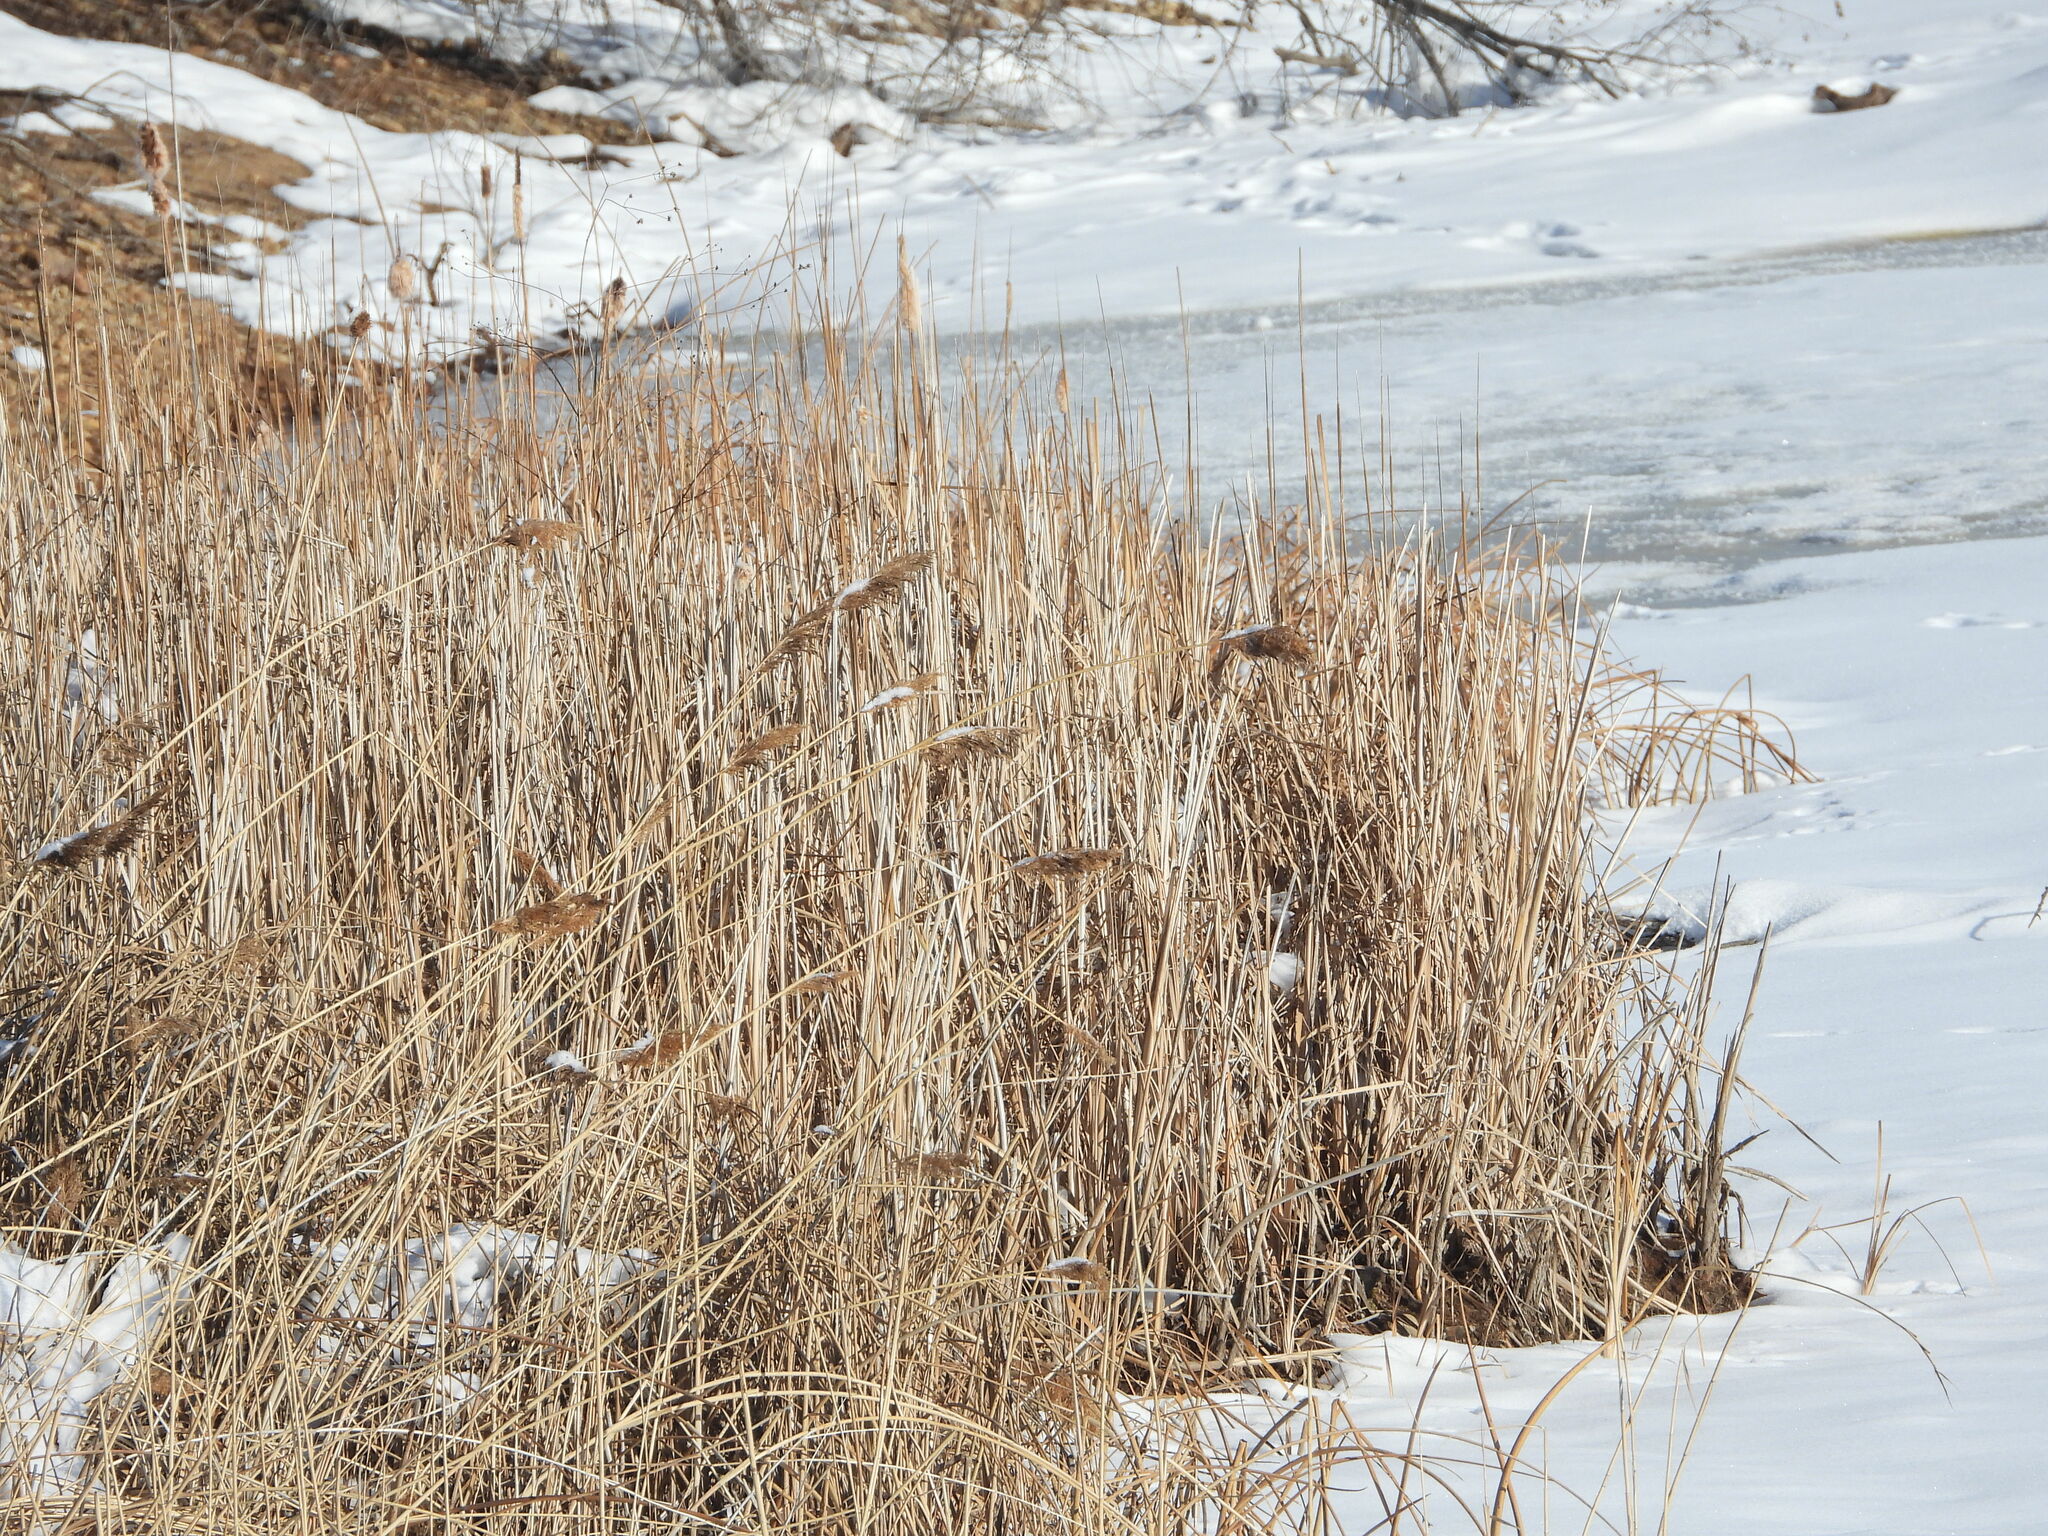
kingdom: Plantae
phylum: Tracheophyta
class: Liliopsida
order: Poales
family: Poaceae
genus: Phragmites
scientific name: Phragmites australis
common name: Common reed
